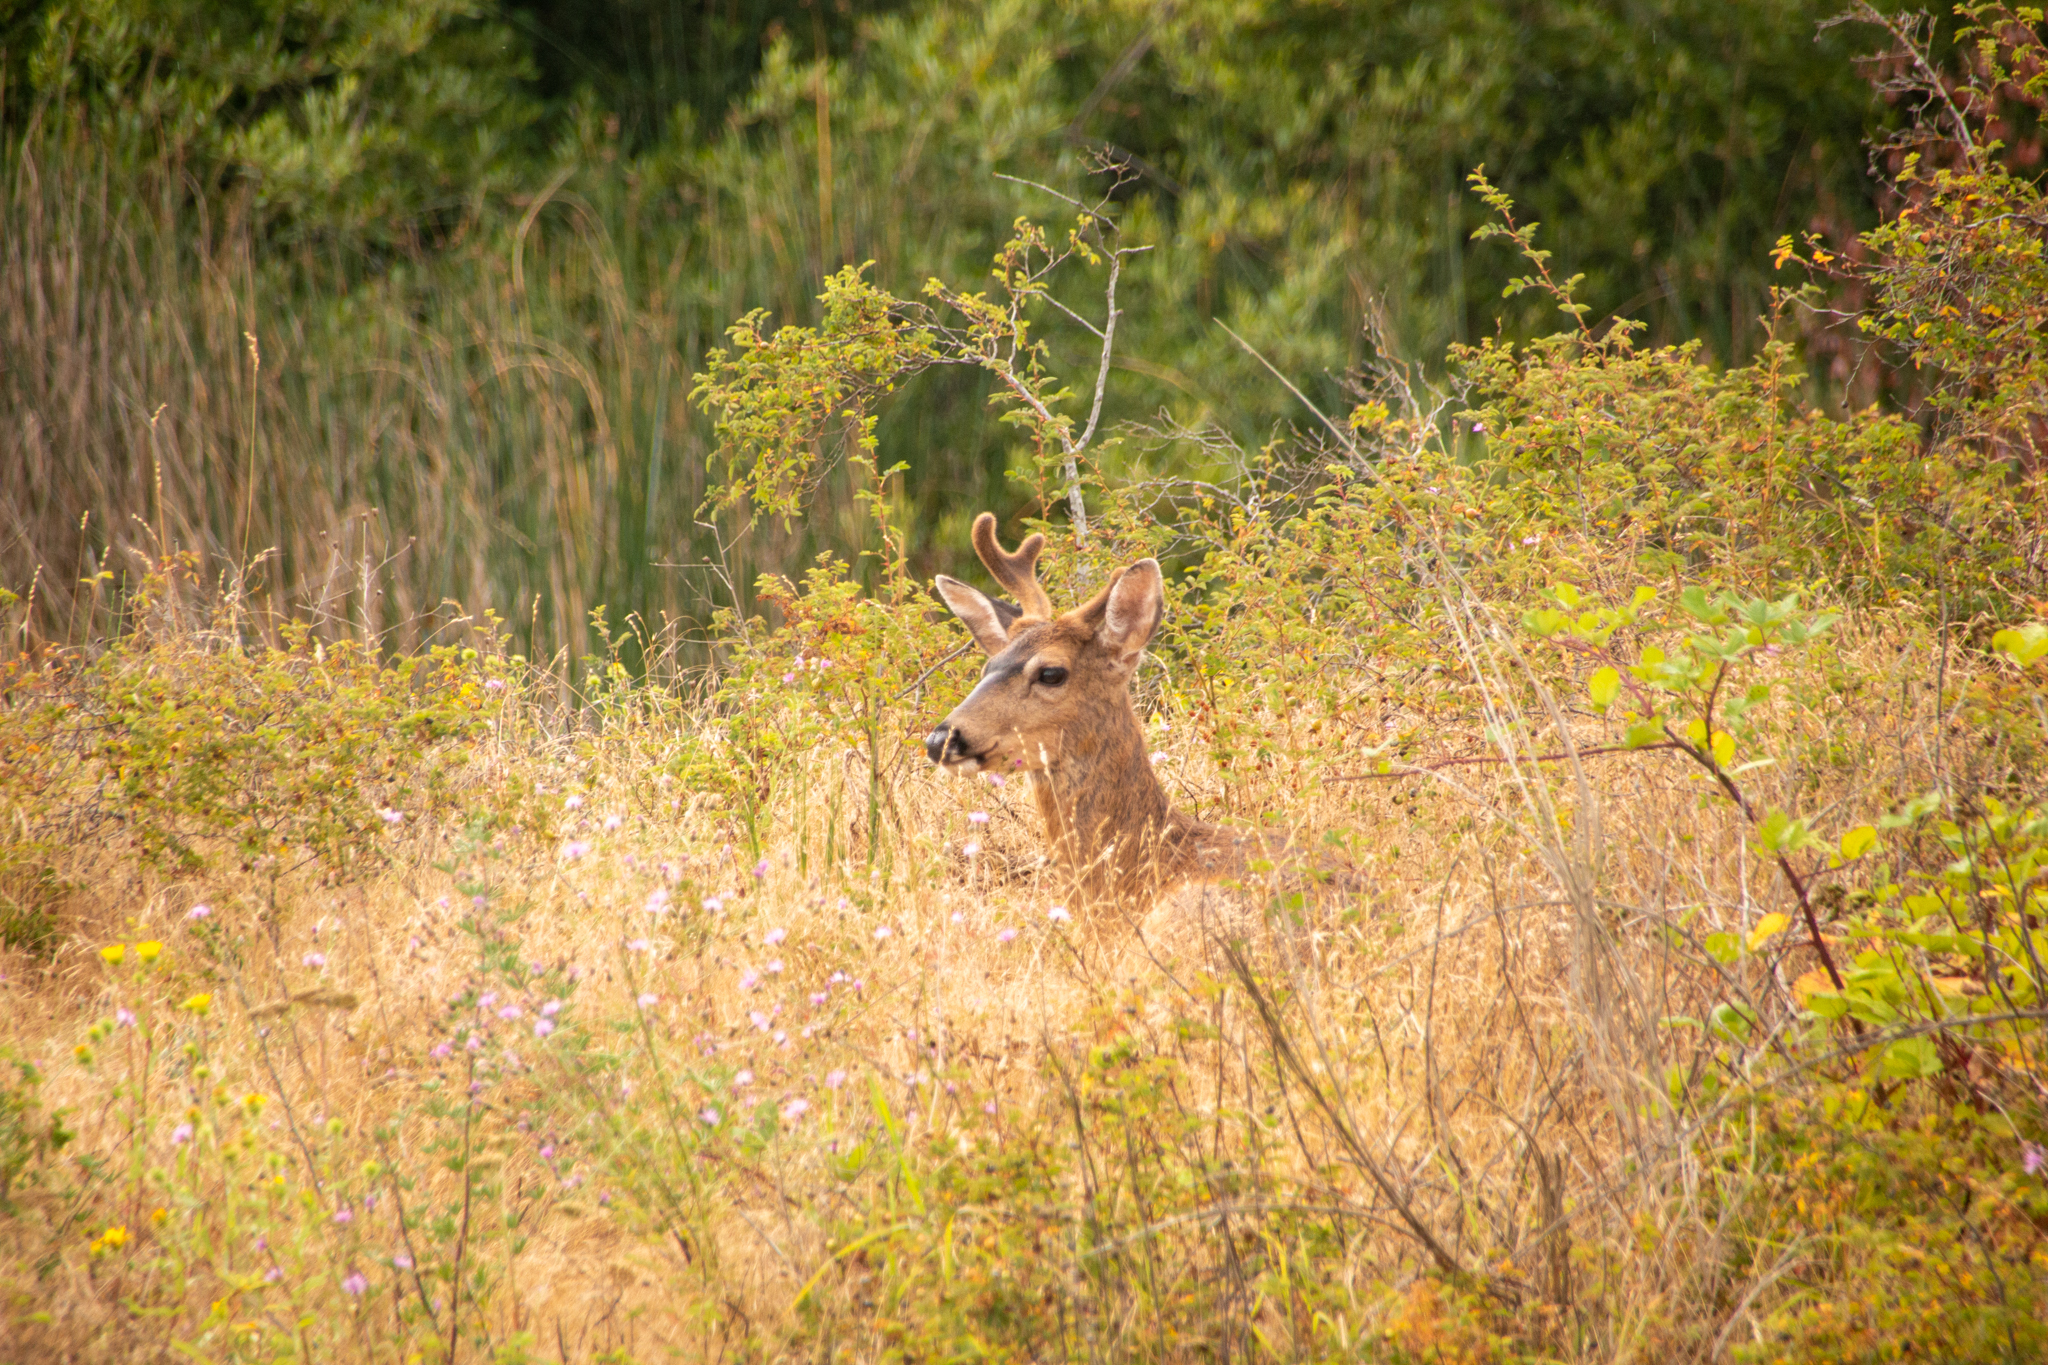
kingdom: Animalia
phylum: Chordata
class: Mammalia
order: Artiodactyla
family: Cervidae
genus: Odocoileus
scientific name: Odocoileus hemionus
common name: Mule deer
